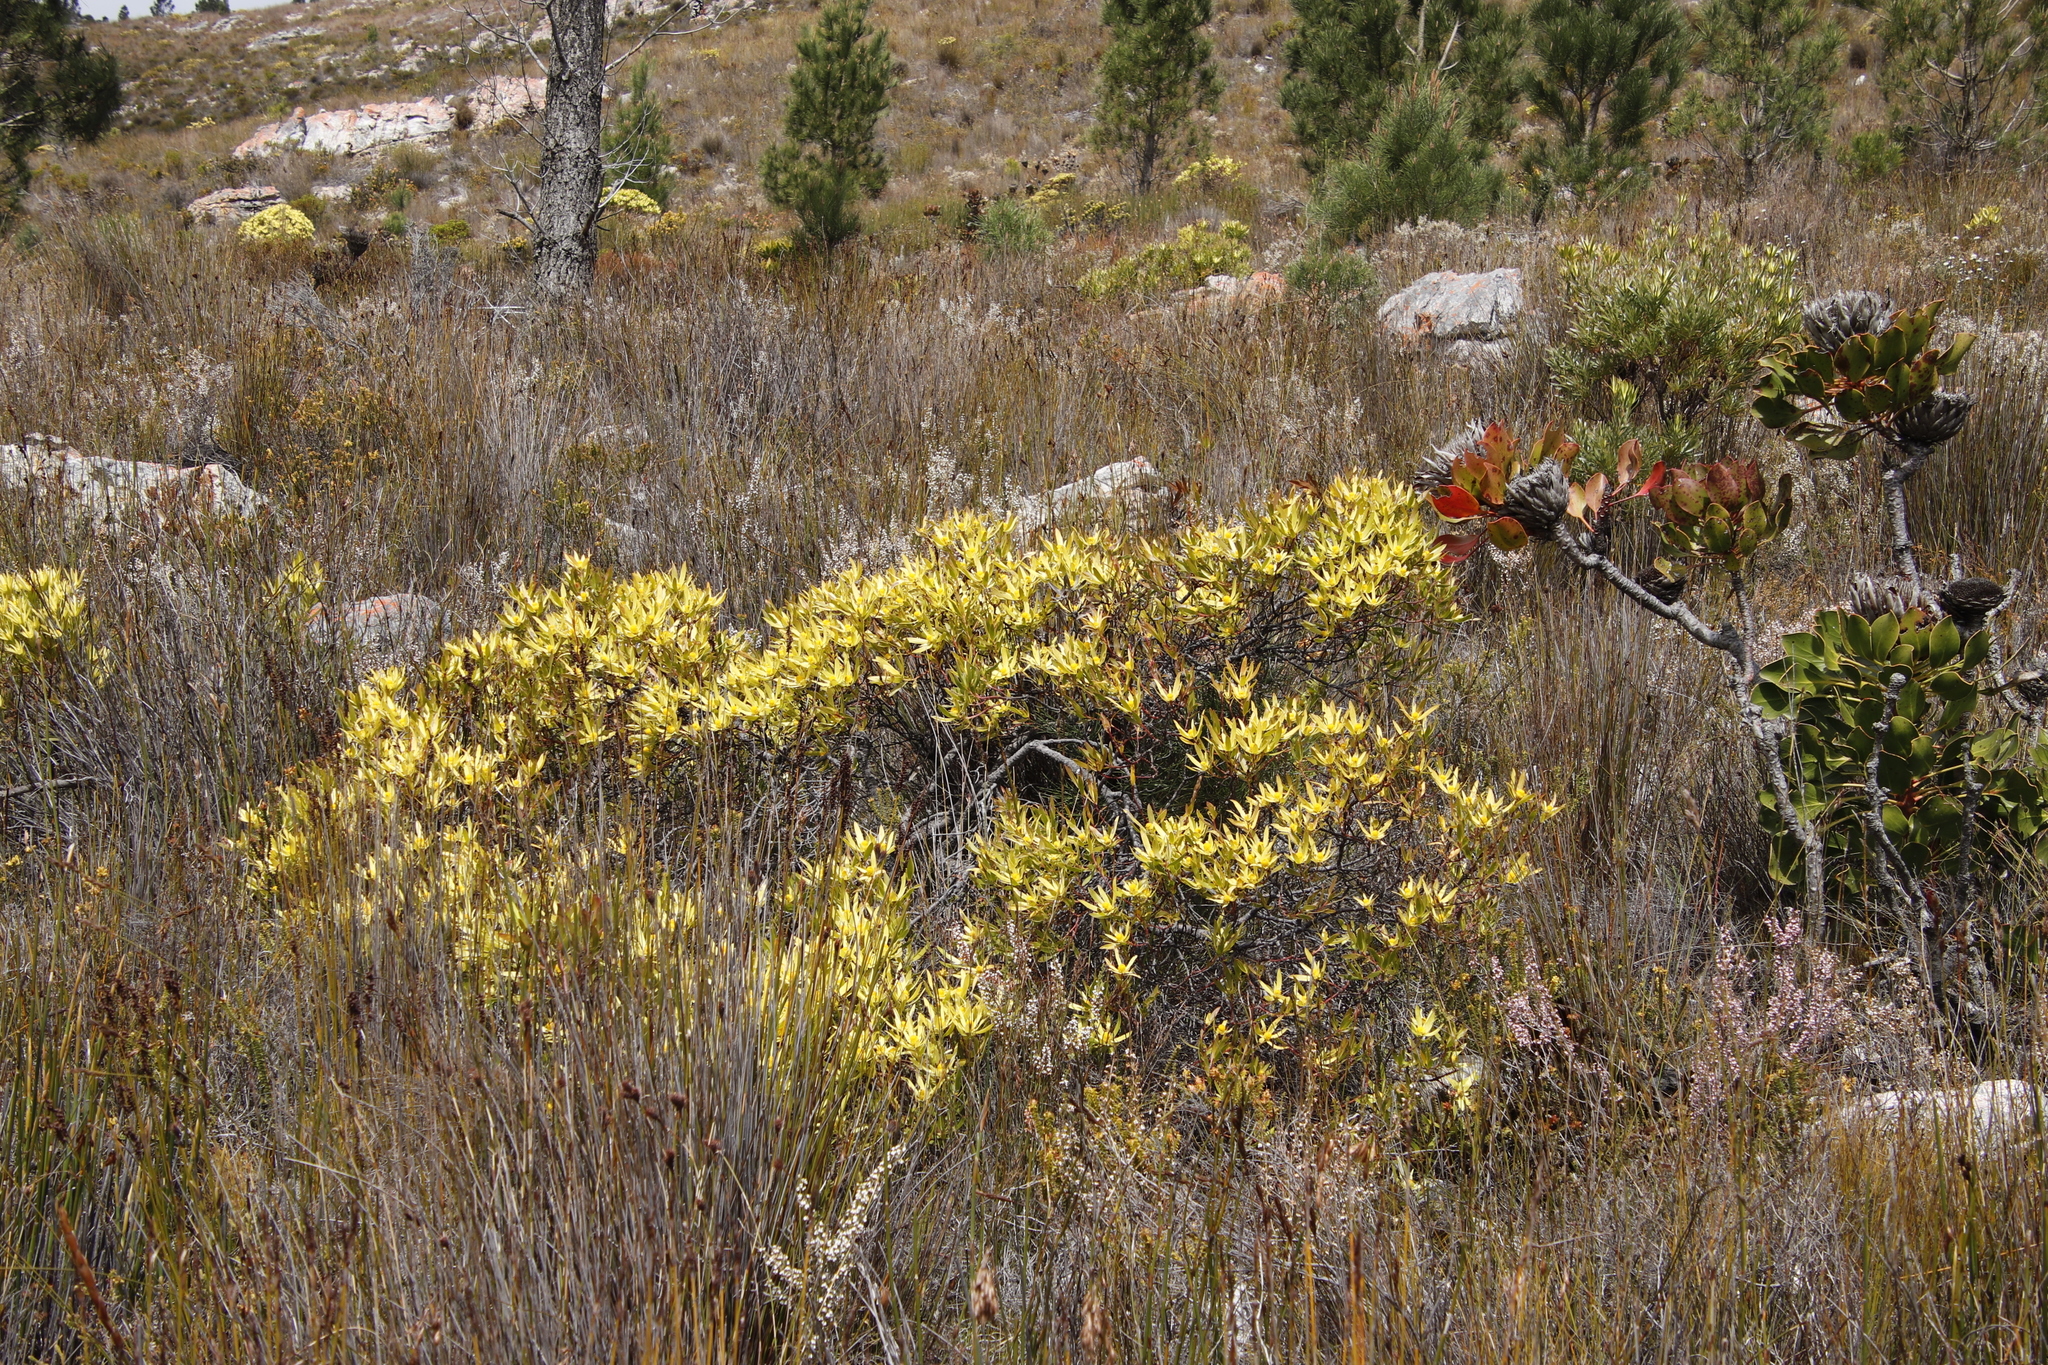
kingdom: Plantae
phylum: Tracheophyta
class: Magnoliopsida
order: Proteales
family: Proteaceae
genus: Leucadendron
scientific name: Leucadendron xanthoconus
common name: Sickle-leaf conebush
